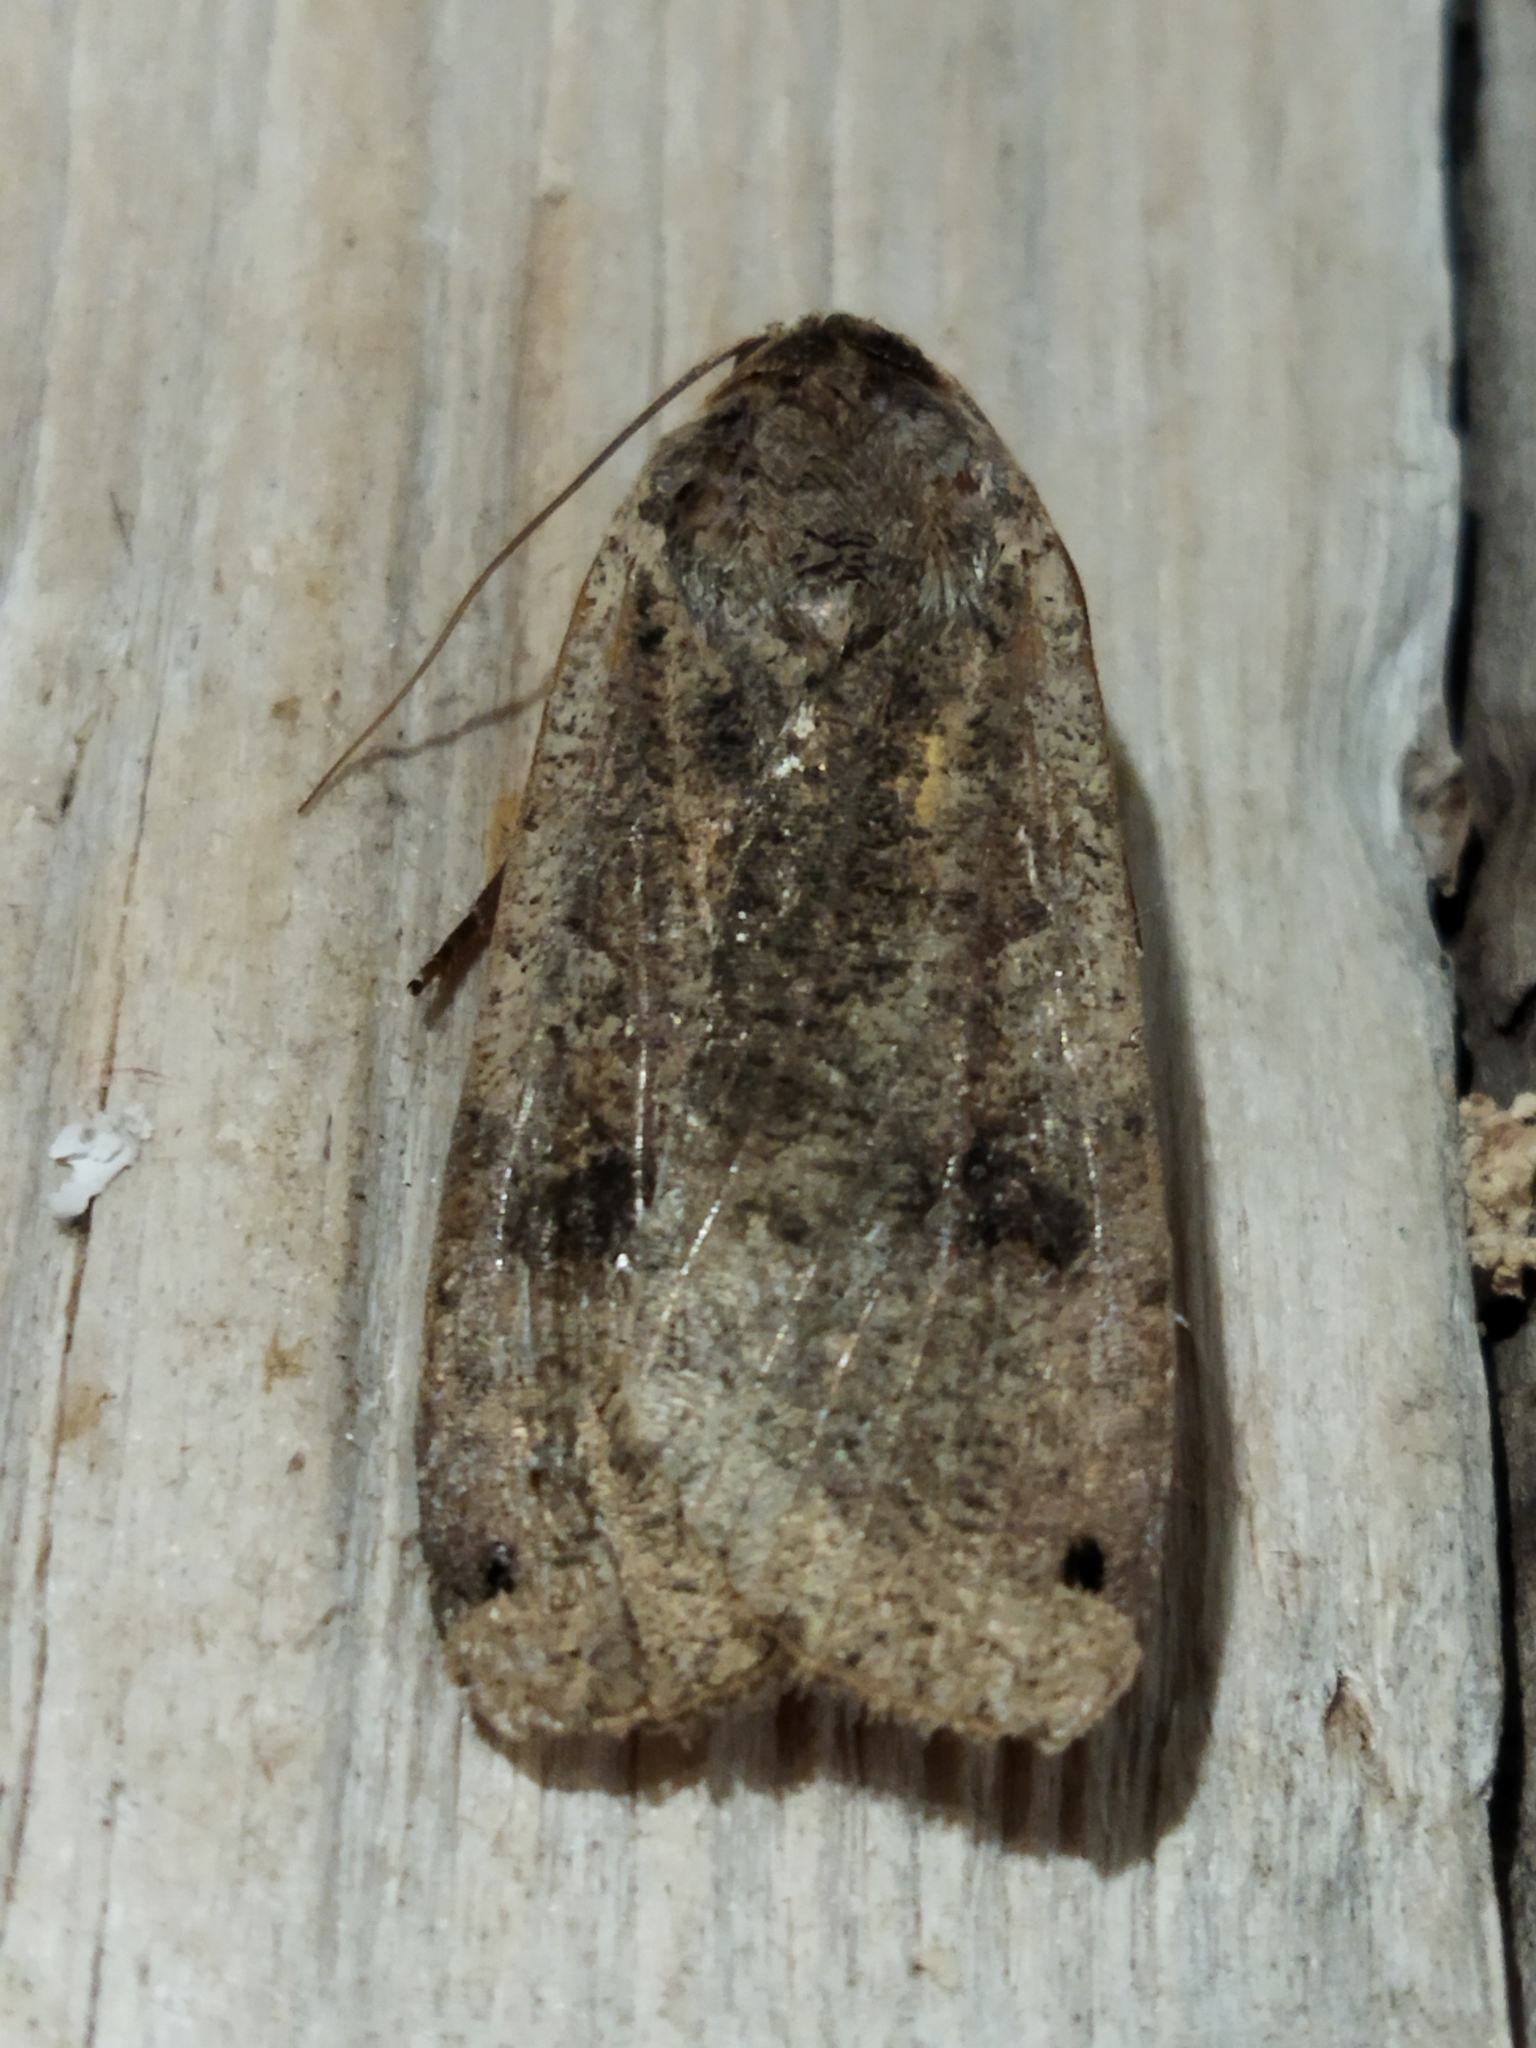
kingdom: Animalia
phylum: Arthropoda
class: Insecta
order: Lepidoptera
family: Noctuidae
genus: Noctua
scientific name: Noctua pronuba
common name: Large yellow underwing
